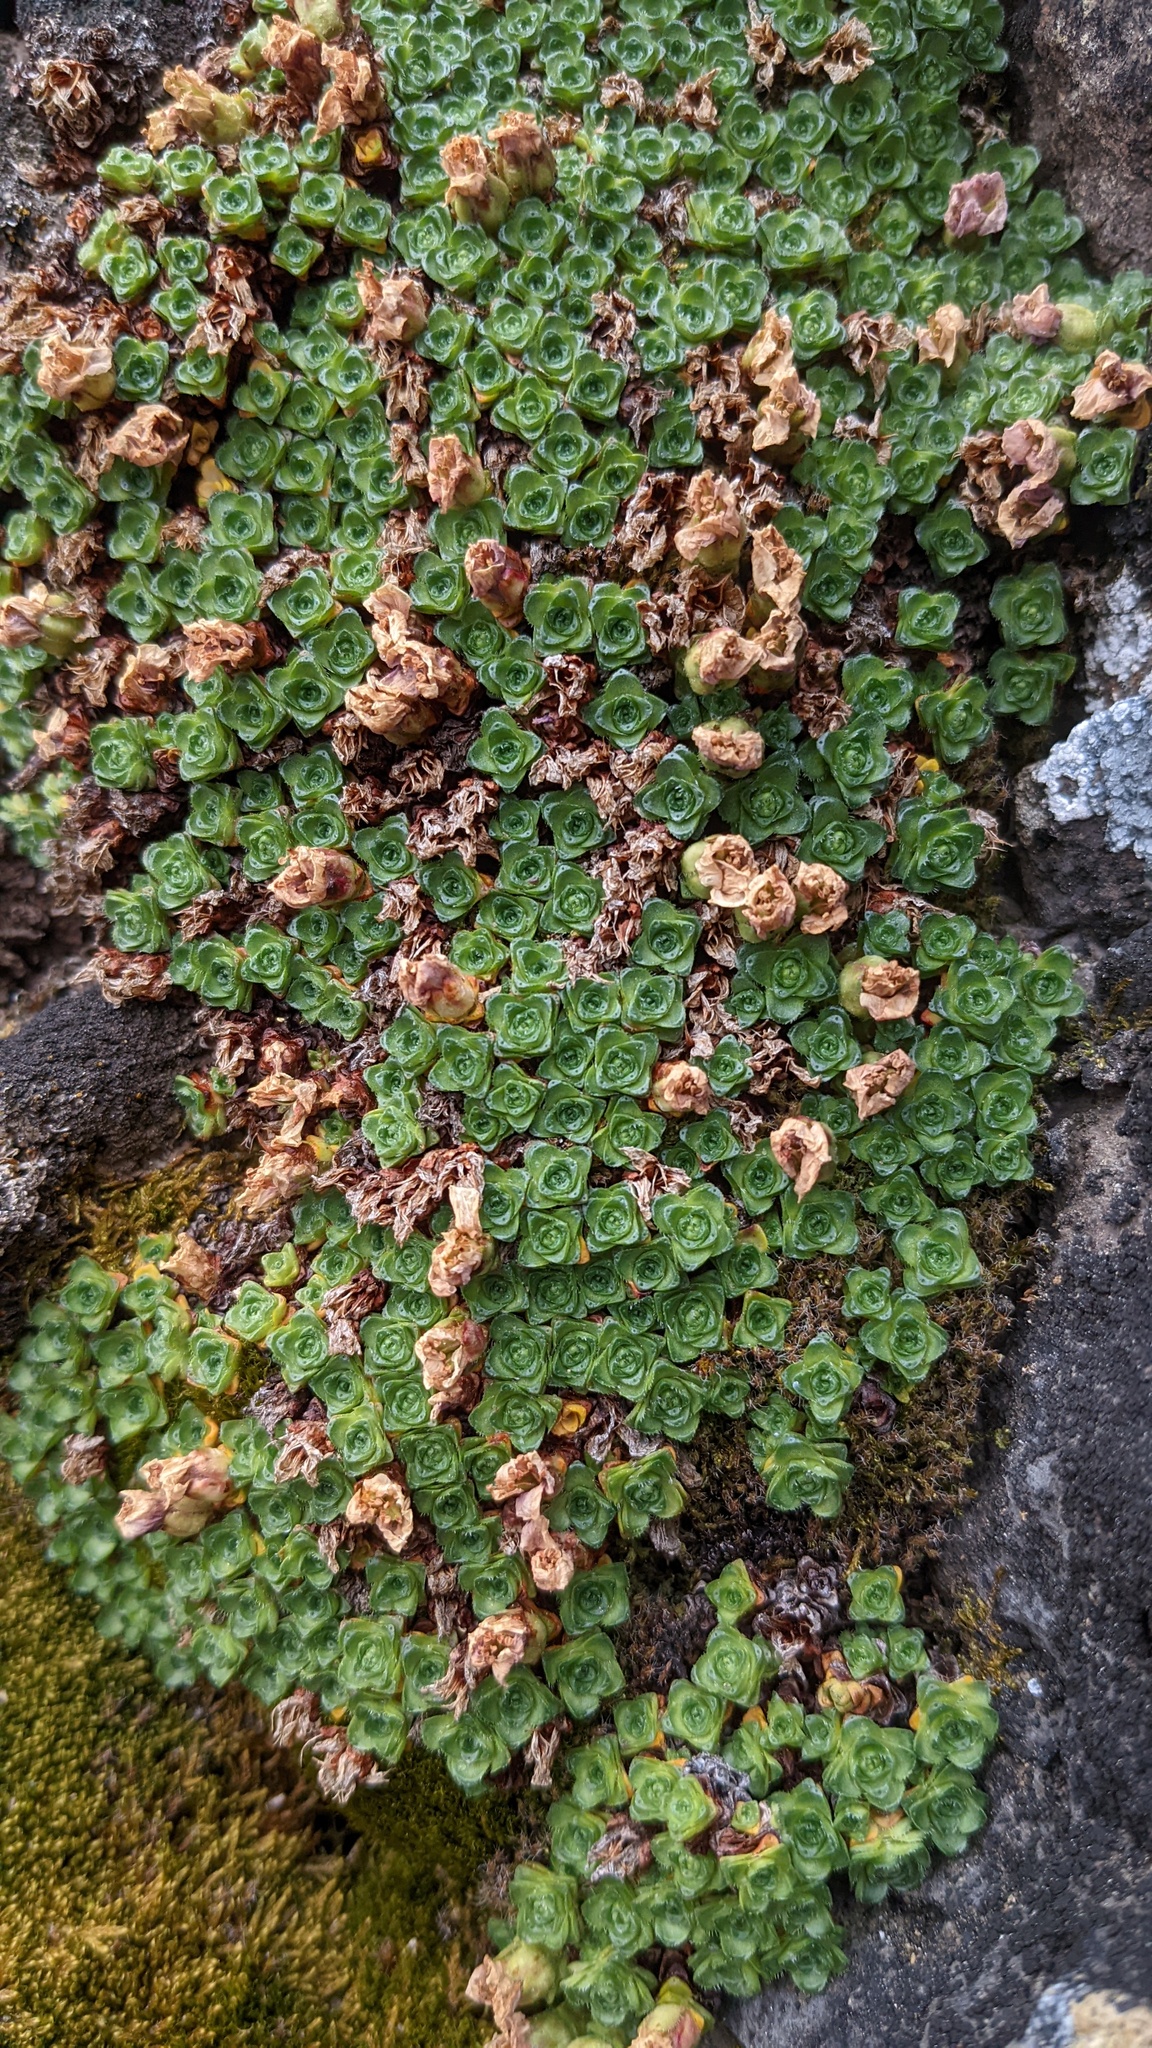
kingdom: Plantae
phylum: Tracheophyta
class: Magnoliopsida
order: Saxifragales
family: Saxifragaceae
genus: Saxifraga
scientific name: Saxifraga oppositifolia
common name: Purple saxifrage
